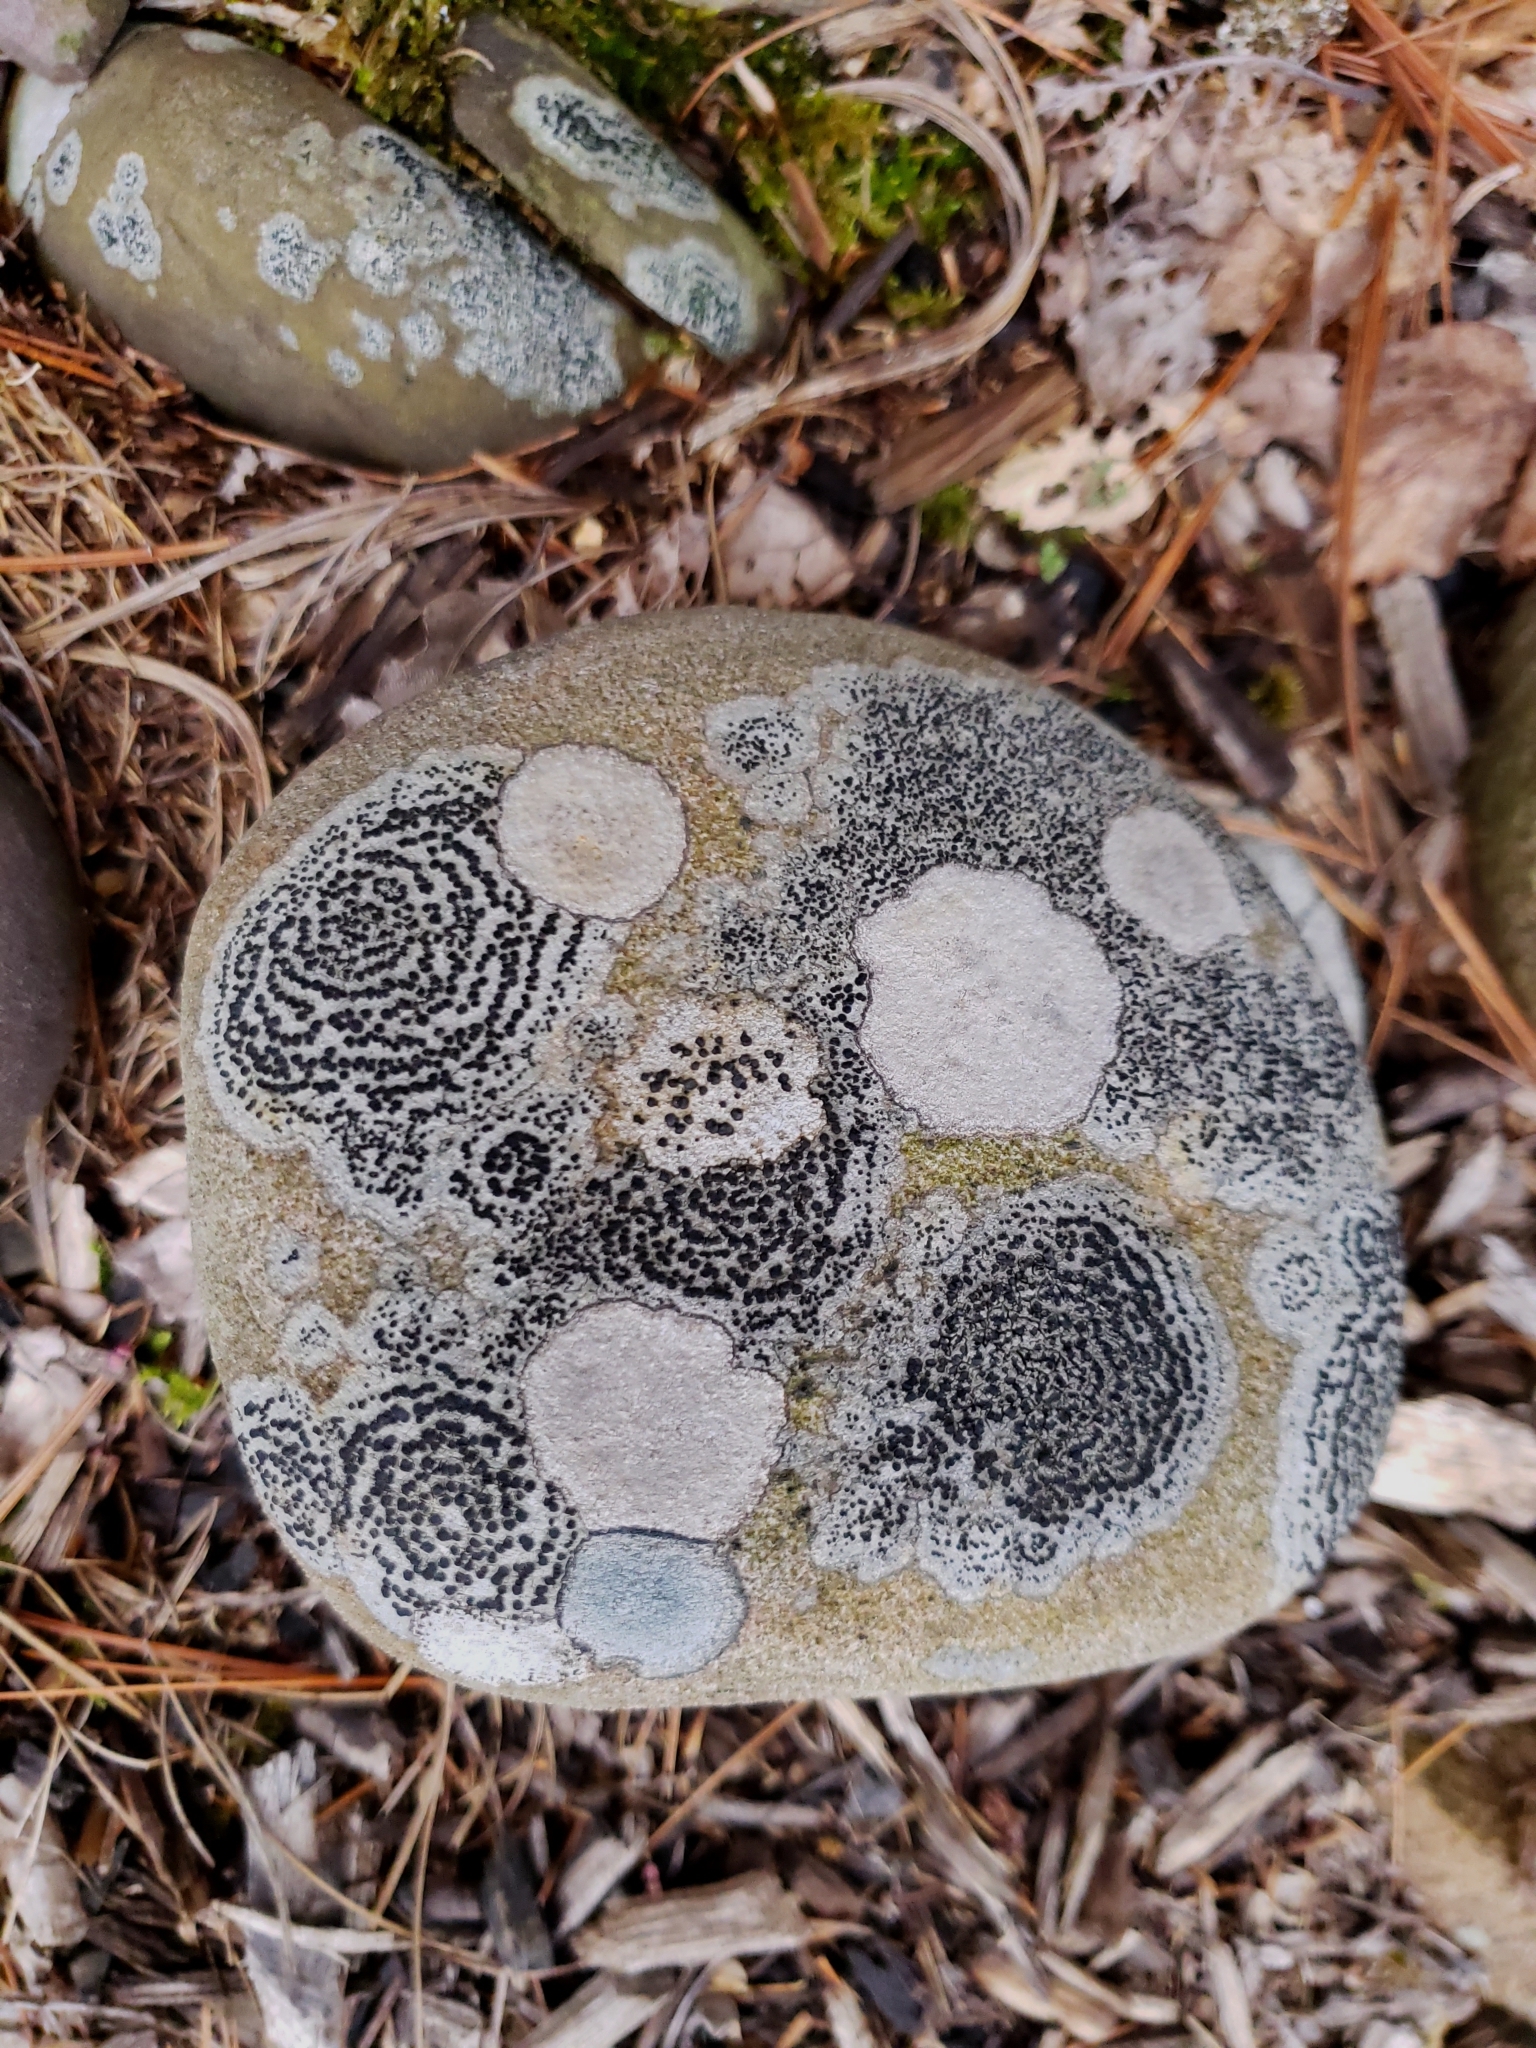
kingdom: Fungi
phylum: Ascomycota
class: Lecanoromycetes
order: Lecideales
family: Lecideaceae
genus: Porpidia
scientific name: Porpidia crustulata
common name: Concentric boulder lichen
